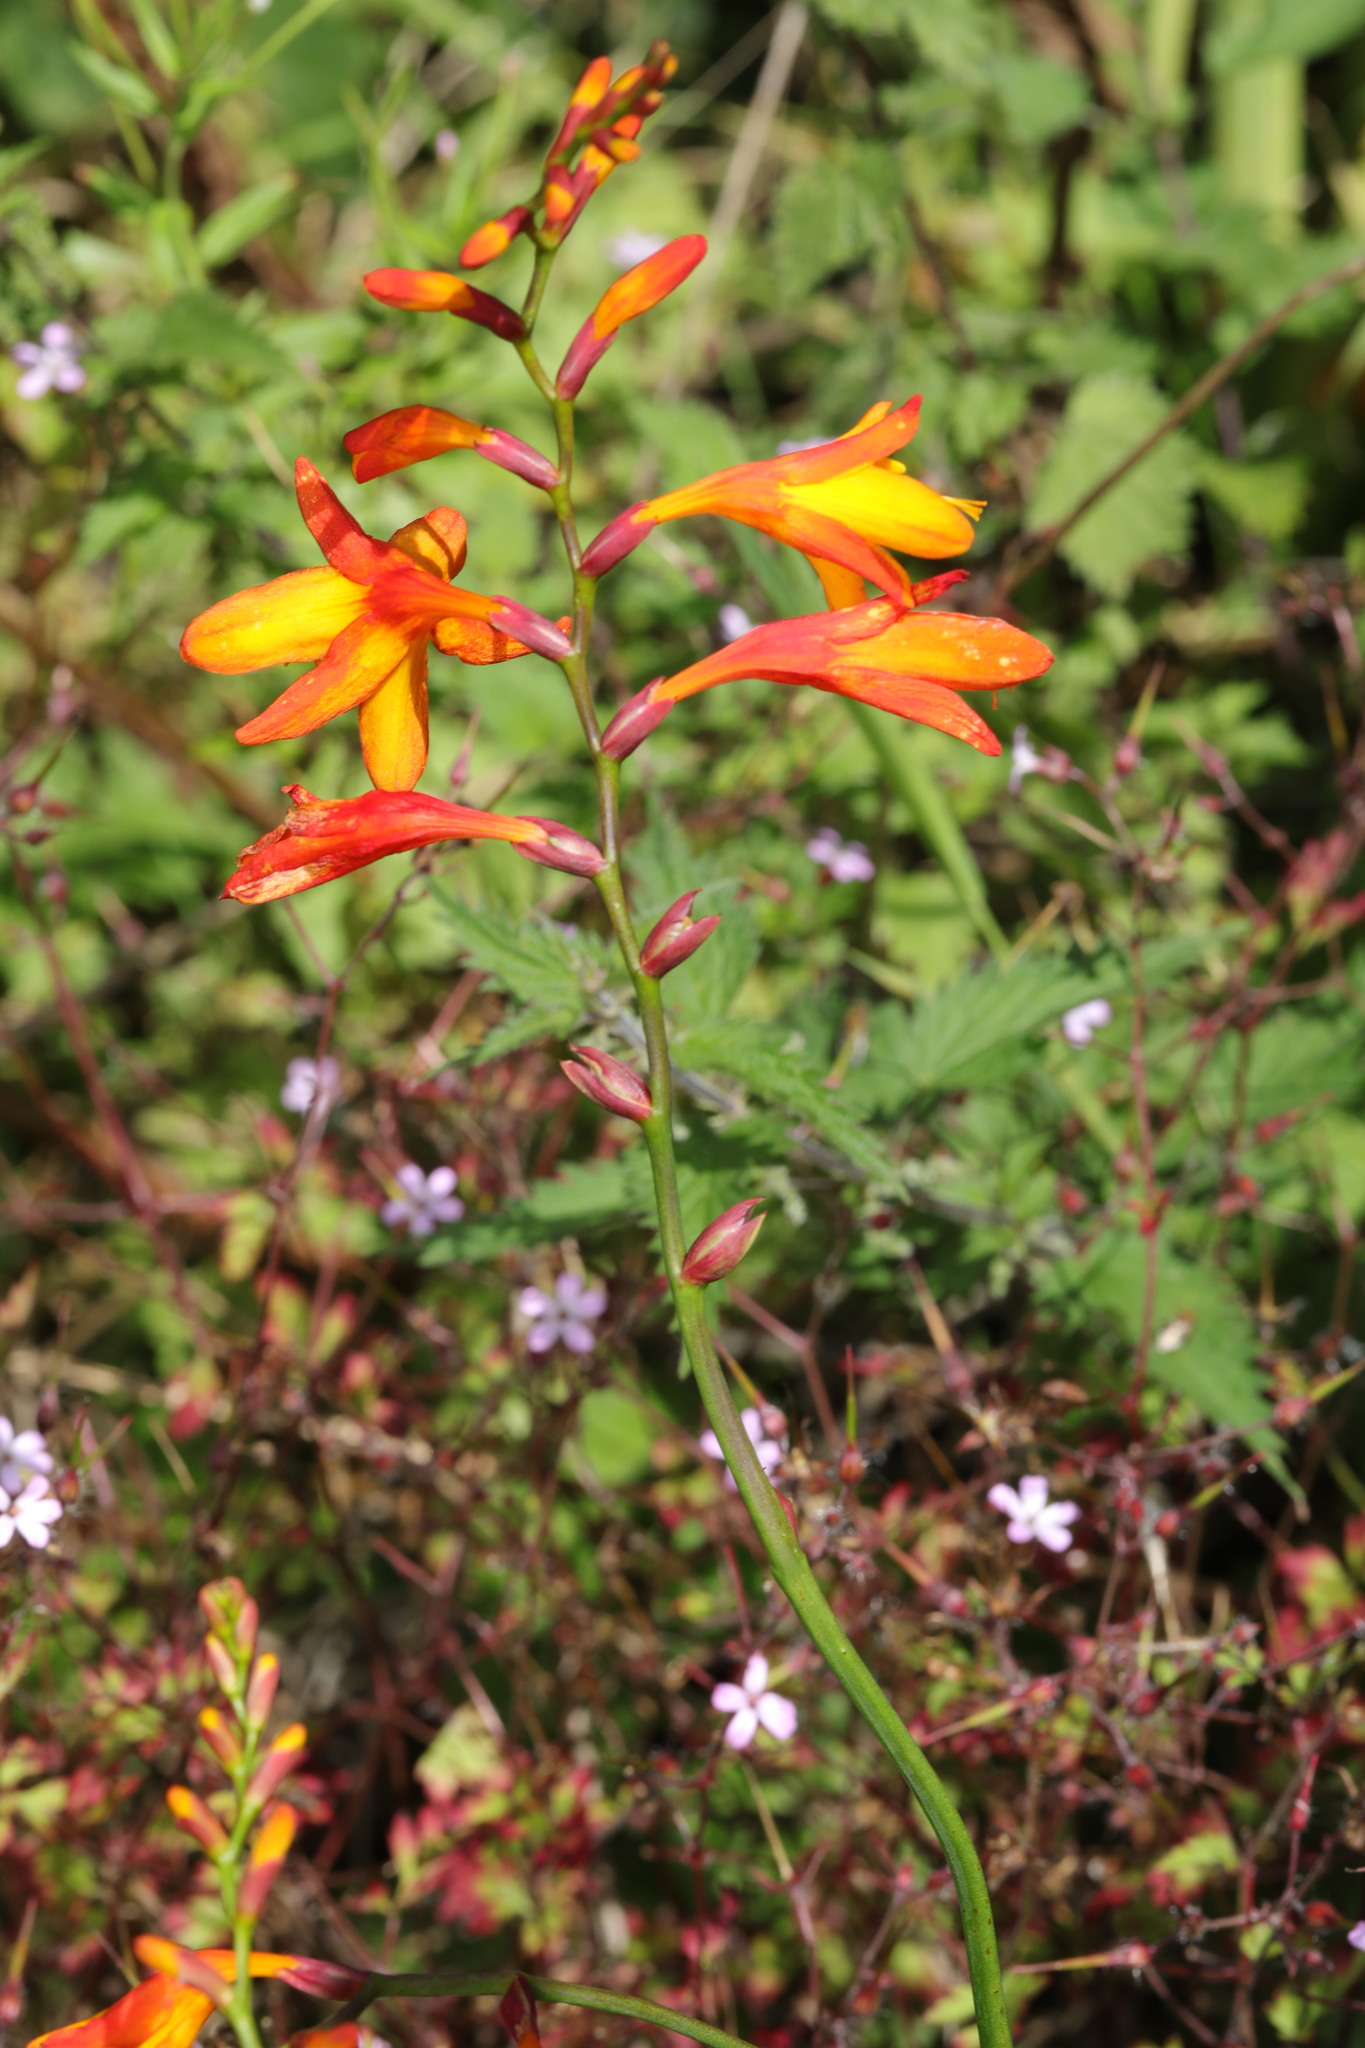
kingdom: Plantae
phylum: Tracheophyta
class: Liliopsida
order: Asparagales
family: Iridaceae
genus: Crocosmia
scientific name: Crocosmia crocosmiiflora
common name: Montbretia
